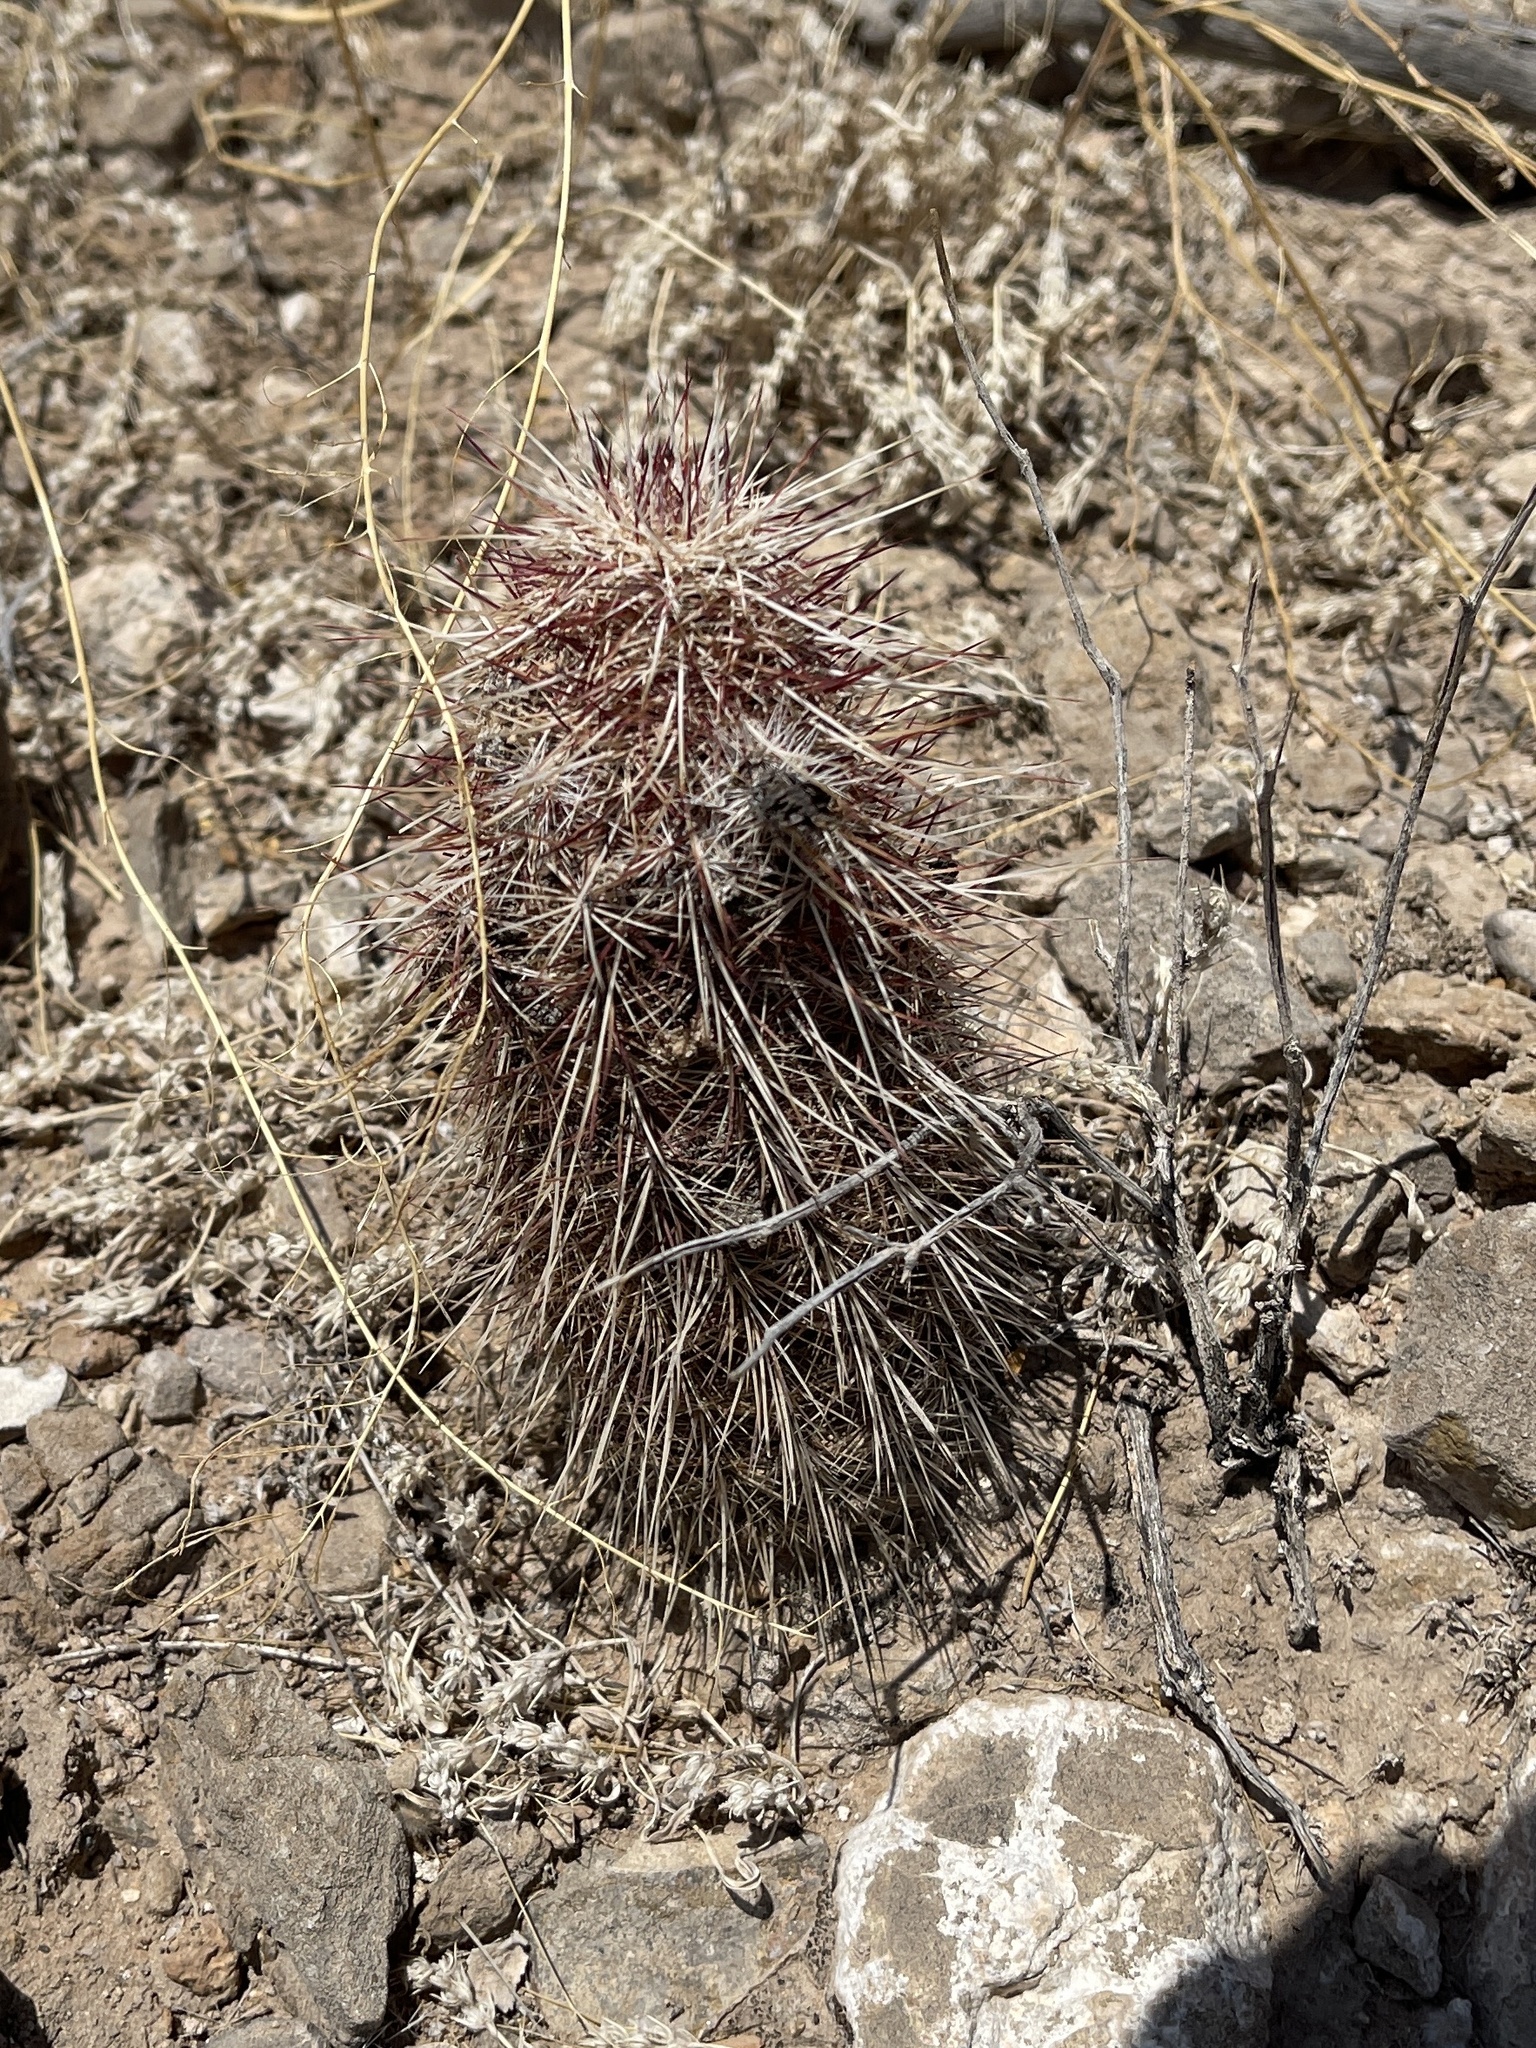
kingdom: Plantae
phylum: Tracheophyta
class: Magnoliopsida
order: Caryophyllales
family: Cactaceae
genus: Echinocereus
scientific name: Echinocereus viridiflorus
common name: Nylon hedgehog cactus
